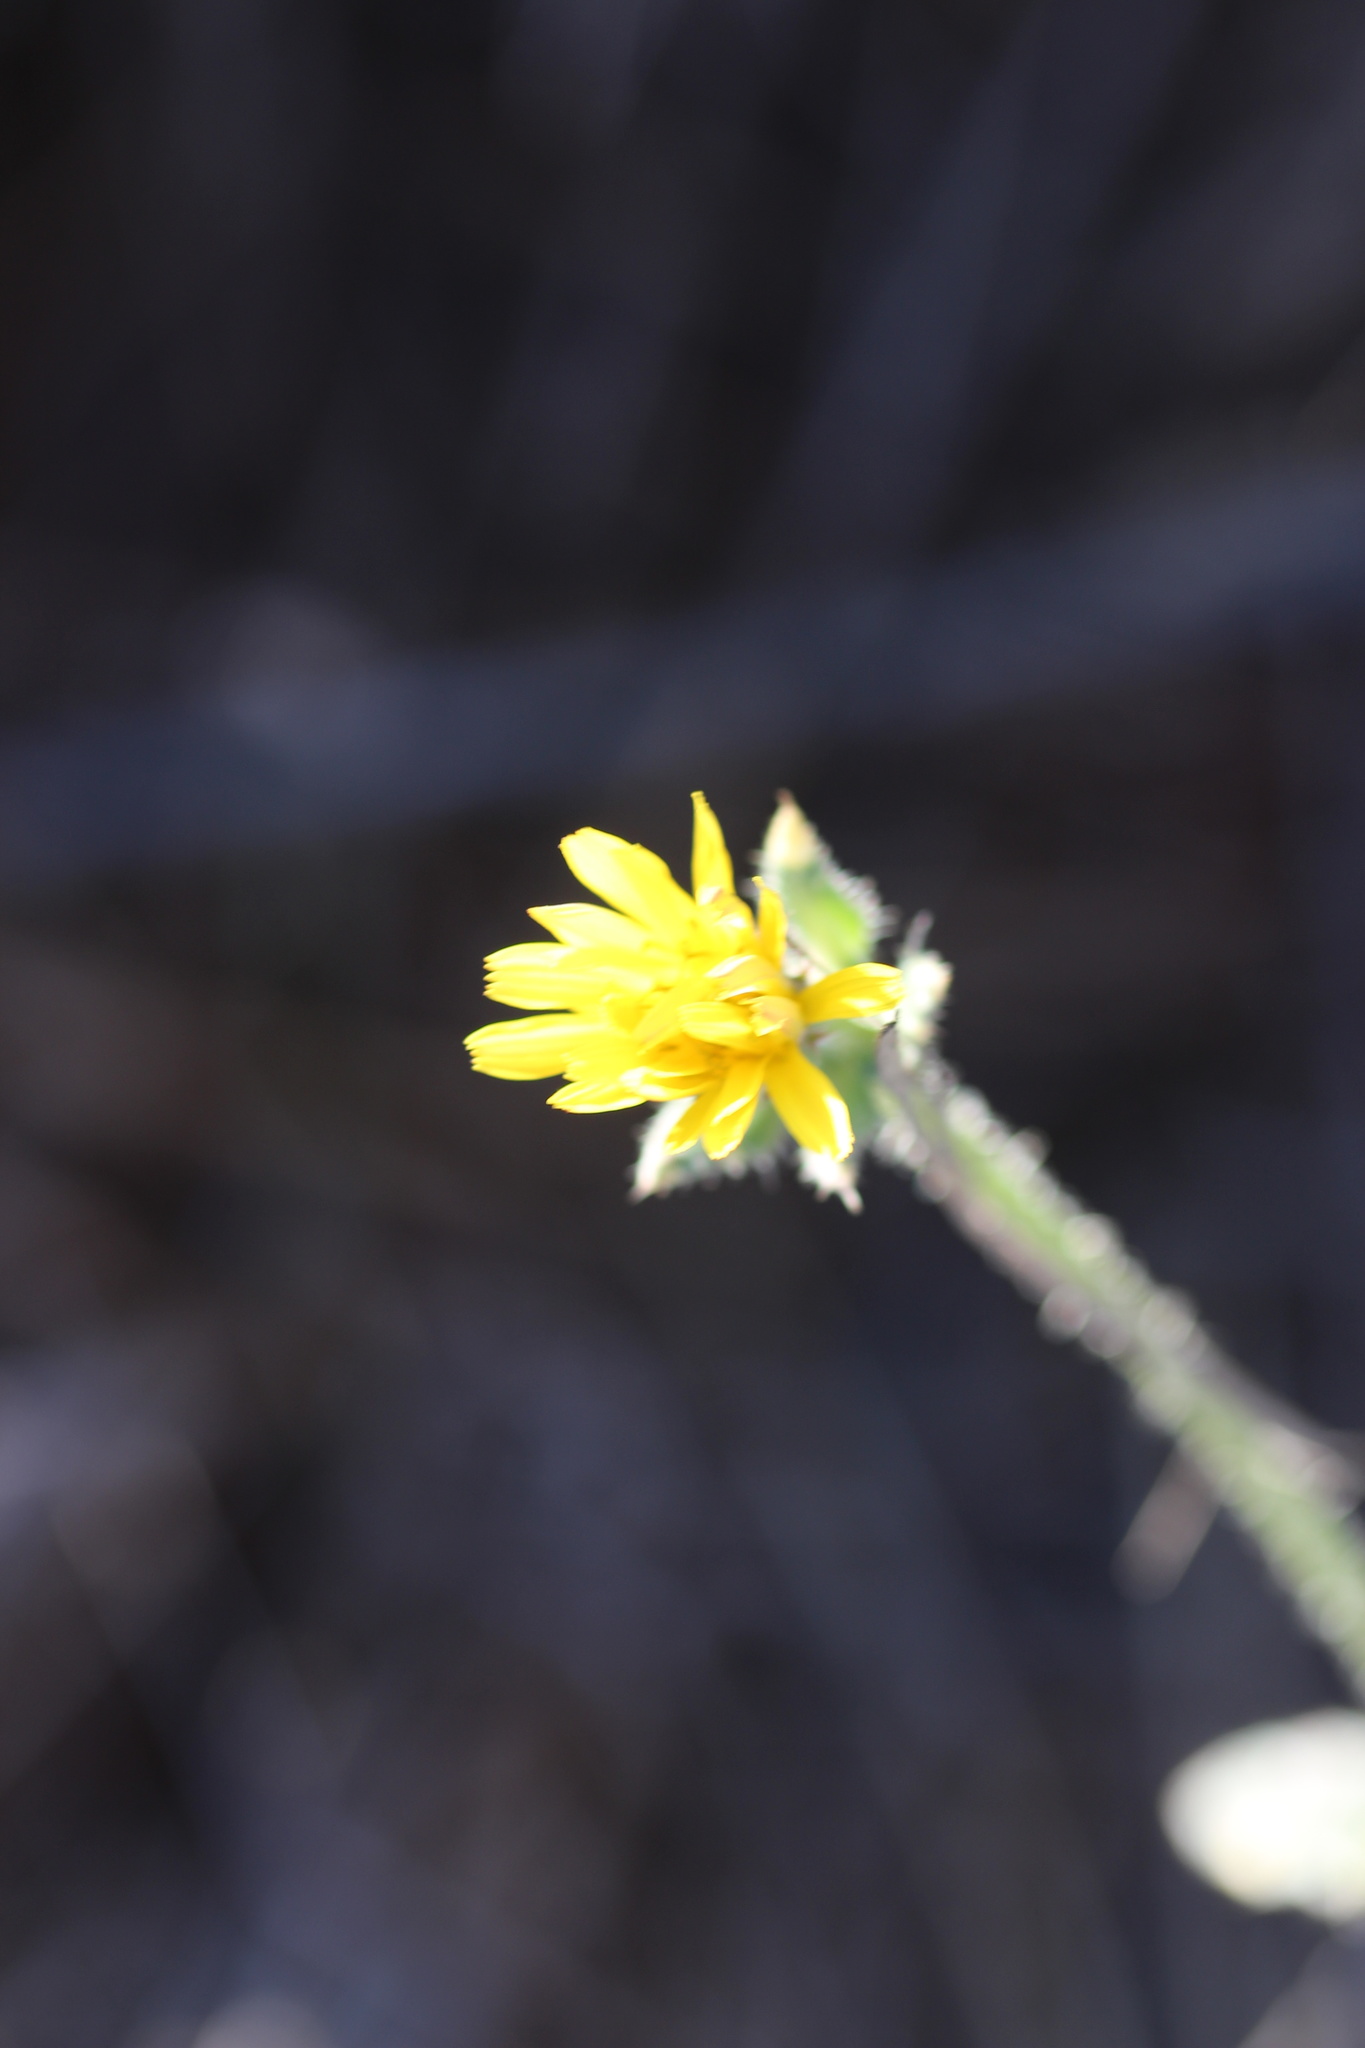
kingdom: Plantae
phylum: Tracheophyta
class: Magnoliopsida
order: Asterales
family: Asteraceae
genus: Helminthotheca
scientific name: Helminthotheca echioides
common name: Ox-tongue
